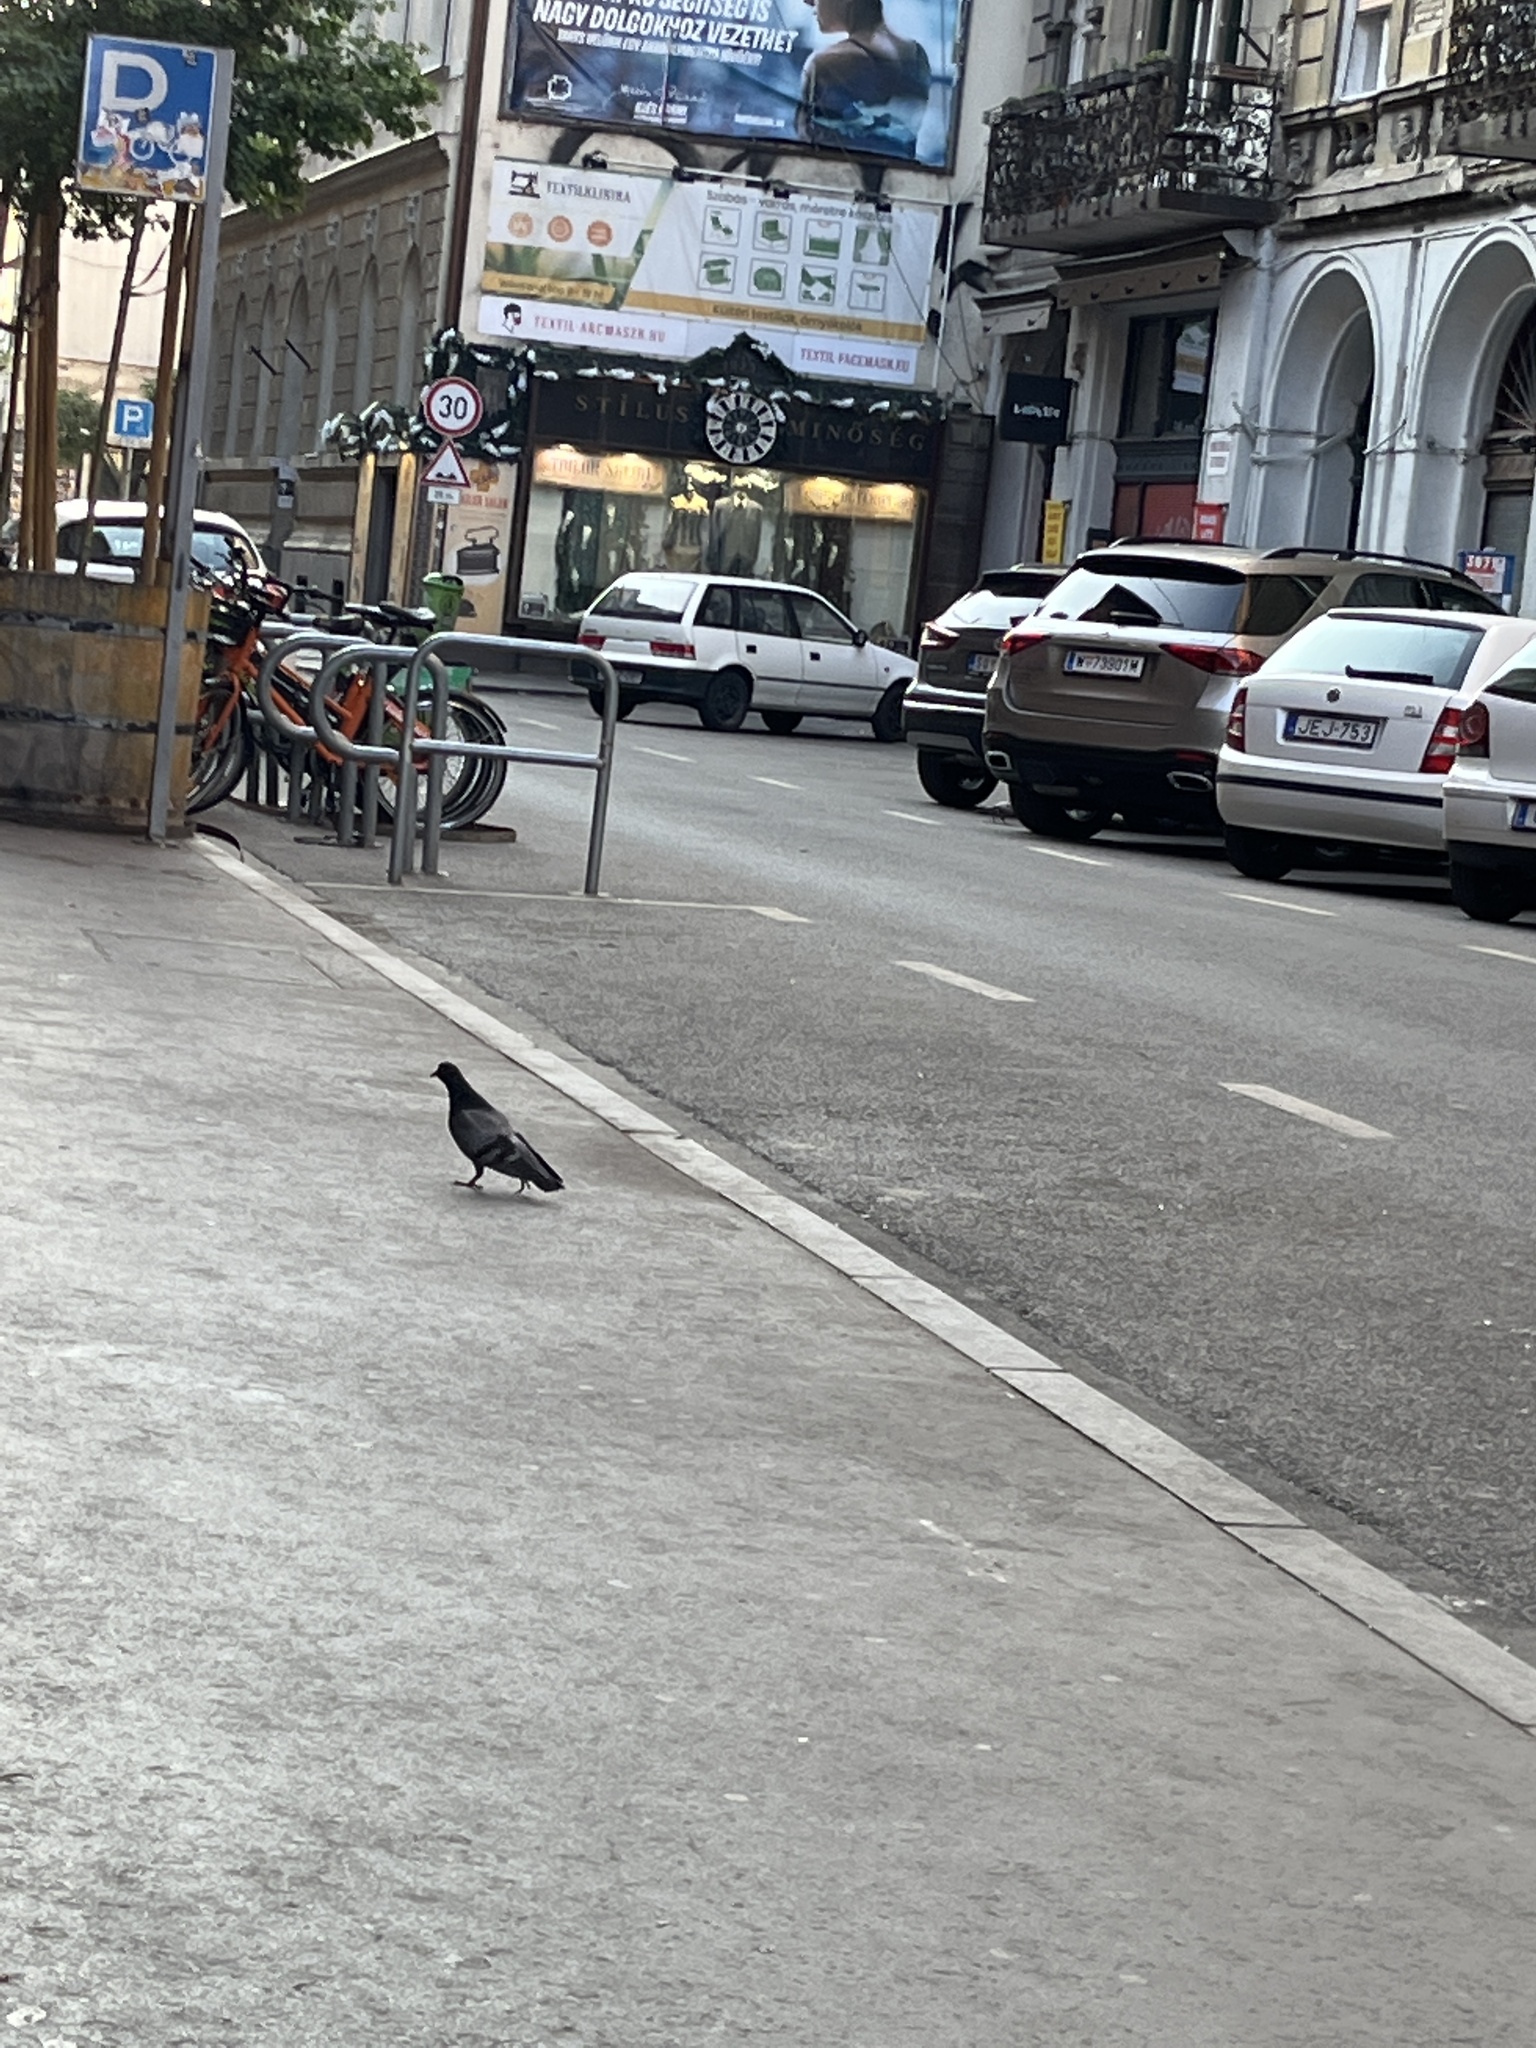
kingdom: Animalia
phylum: Chordata
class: Aves
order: Columbiformes
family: Columbidae
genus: Columba
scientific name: Columba livia
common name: Rock pigeon
